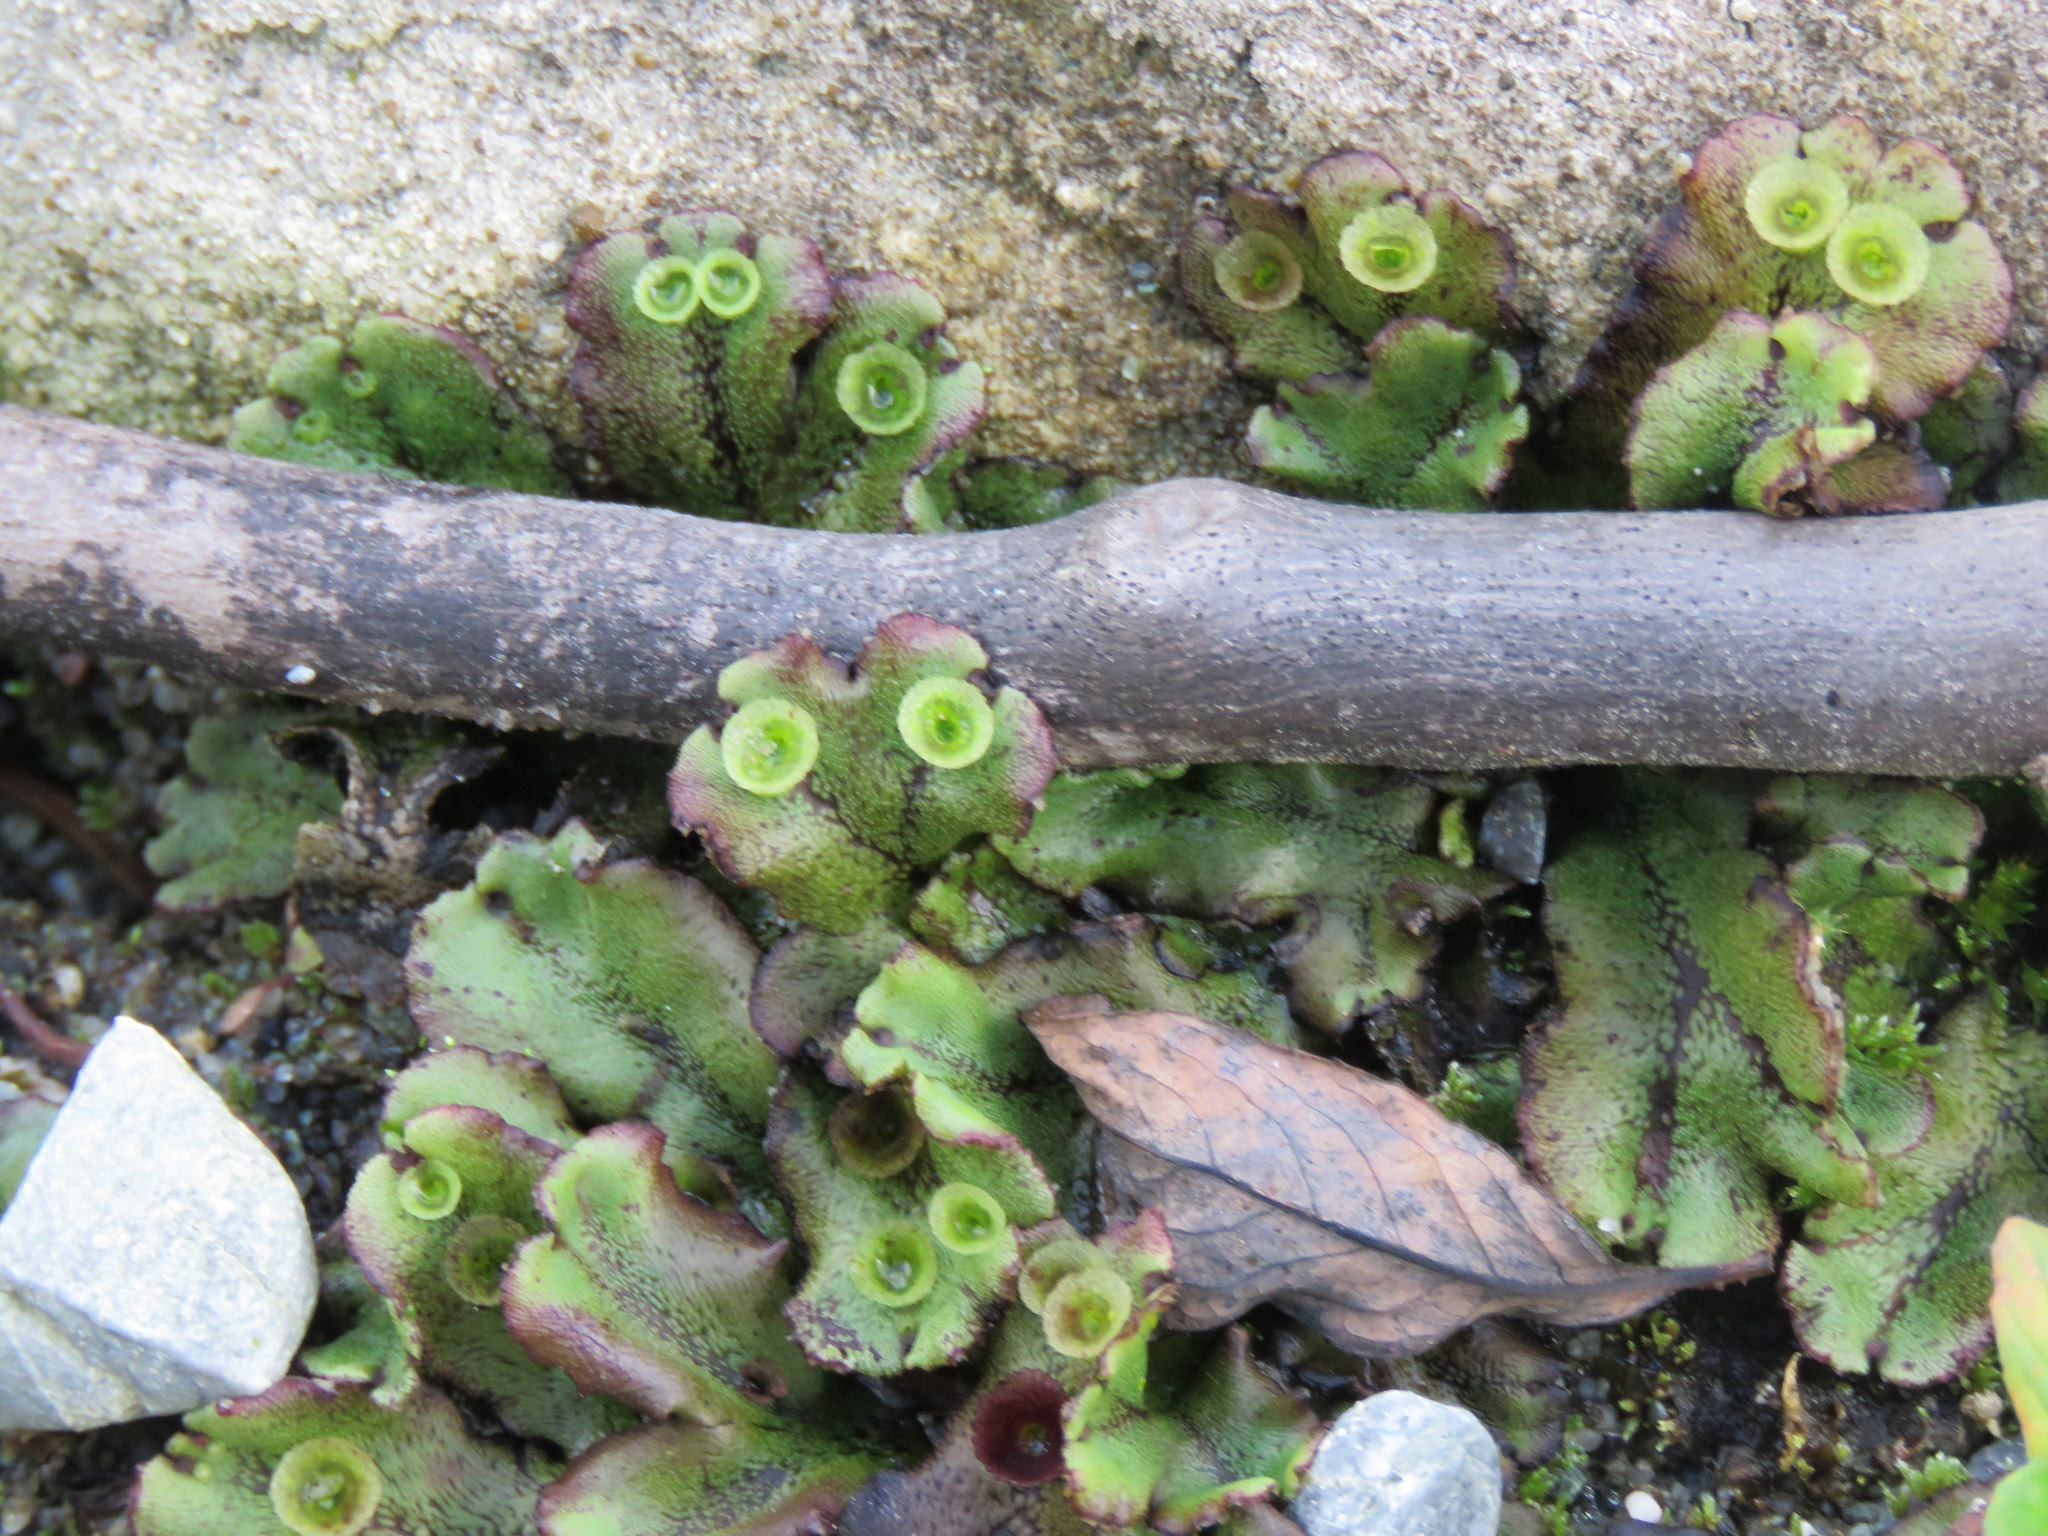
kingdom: Plantae
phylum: Marchantiophyta
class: Marchantiopsida
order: Marchantiales
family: Marchantiaceae
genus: Marchantia
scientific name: Marchantia polymorpha
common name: Common liverwort
